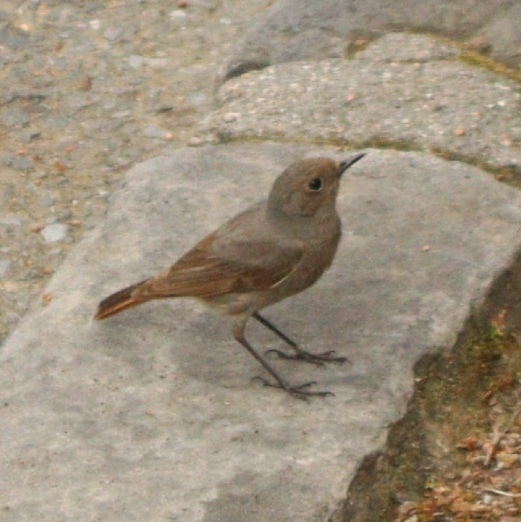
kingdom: Animalia
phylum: Chordata
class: Aves
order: Passeriformes
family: Muscicapidae
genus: Phoenicurus
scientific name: Phoenicurus ochruros
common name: Black redstart
